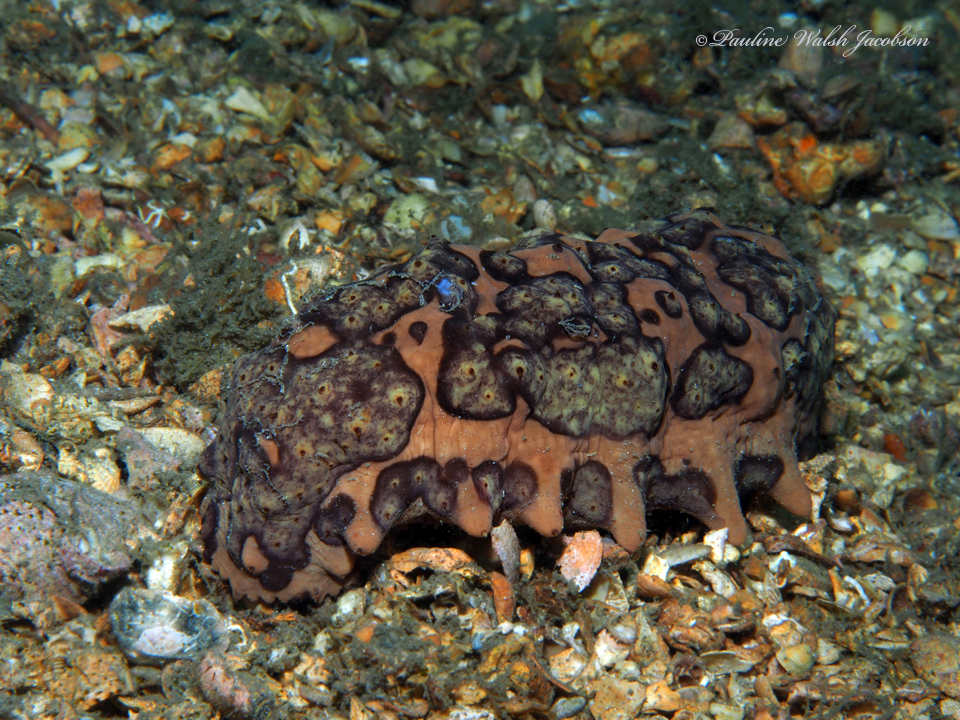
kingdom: Animalia
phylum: Echinodermata
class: Holothuroidea
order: Synallactida
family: Stichopodidae
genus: Isostichopus
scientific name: Isostichopus badionotus
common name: Chocolate chip cucumber
